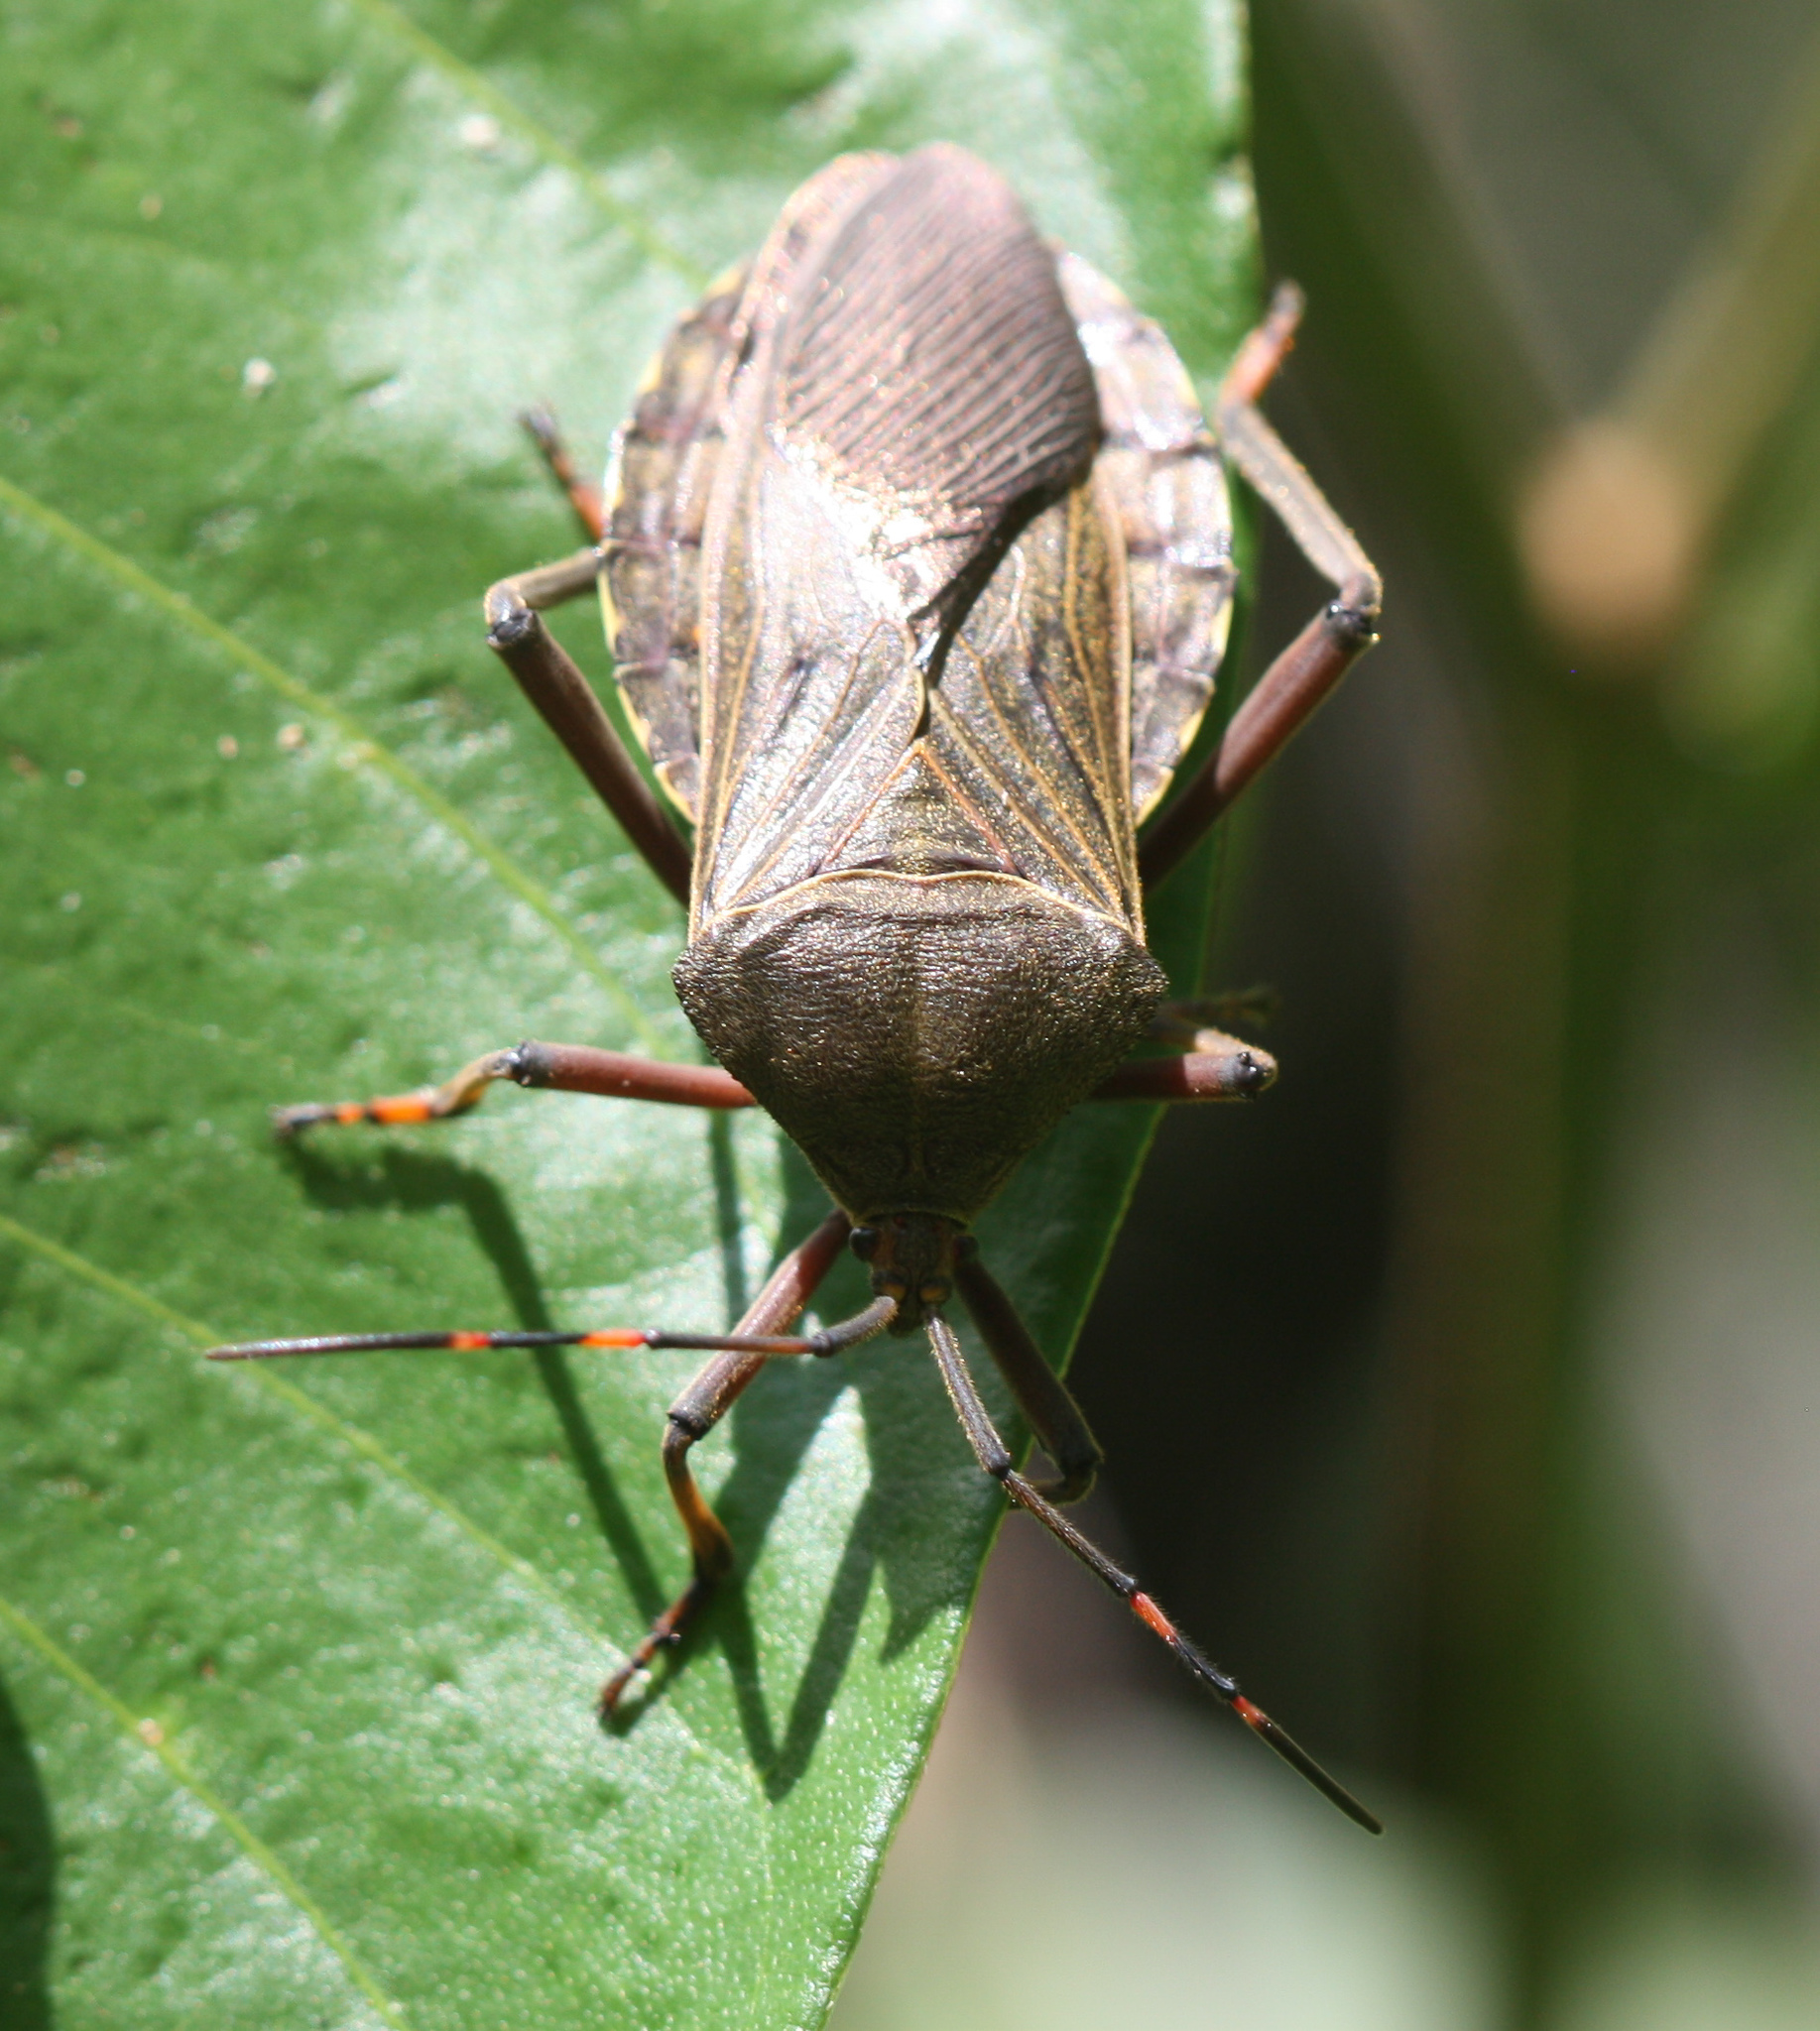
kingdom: Animalia
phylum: Arthropoda
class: Insecta
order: Hemiptera
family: Coreidae
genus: Pachylis
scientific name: Pachylis nervosus
